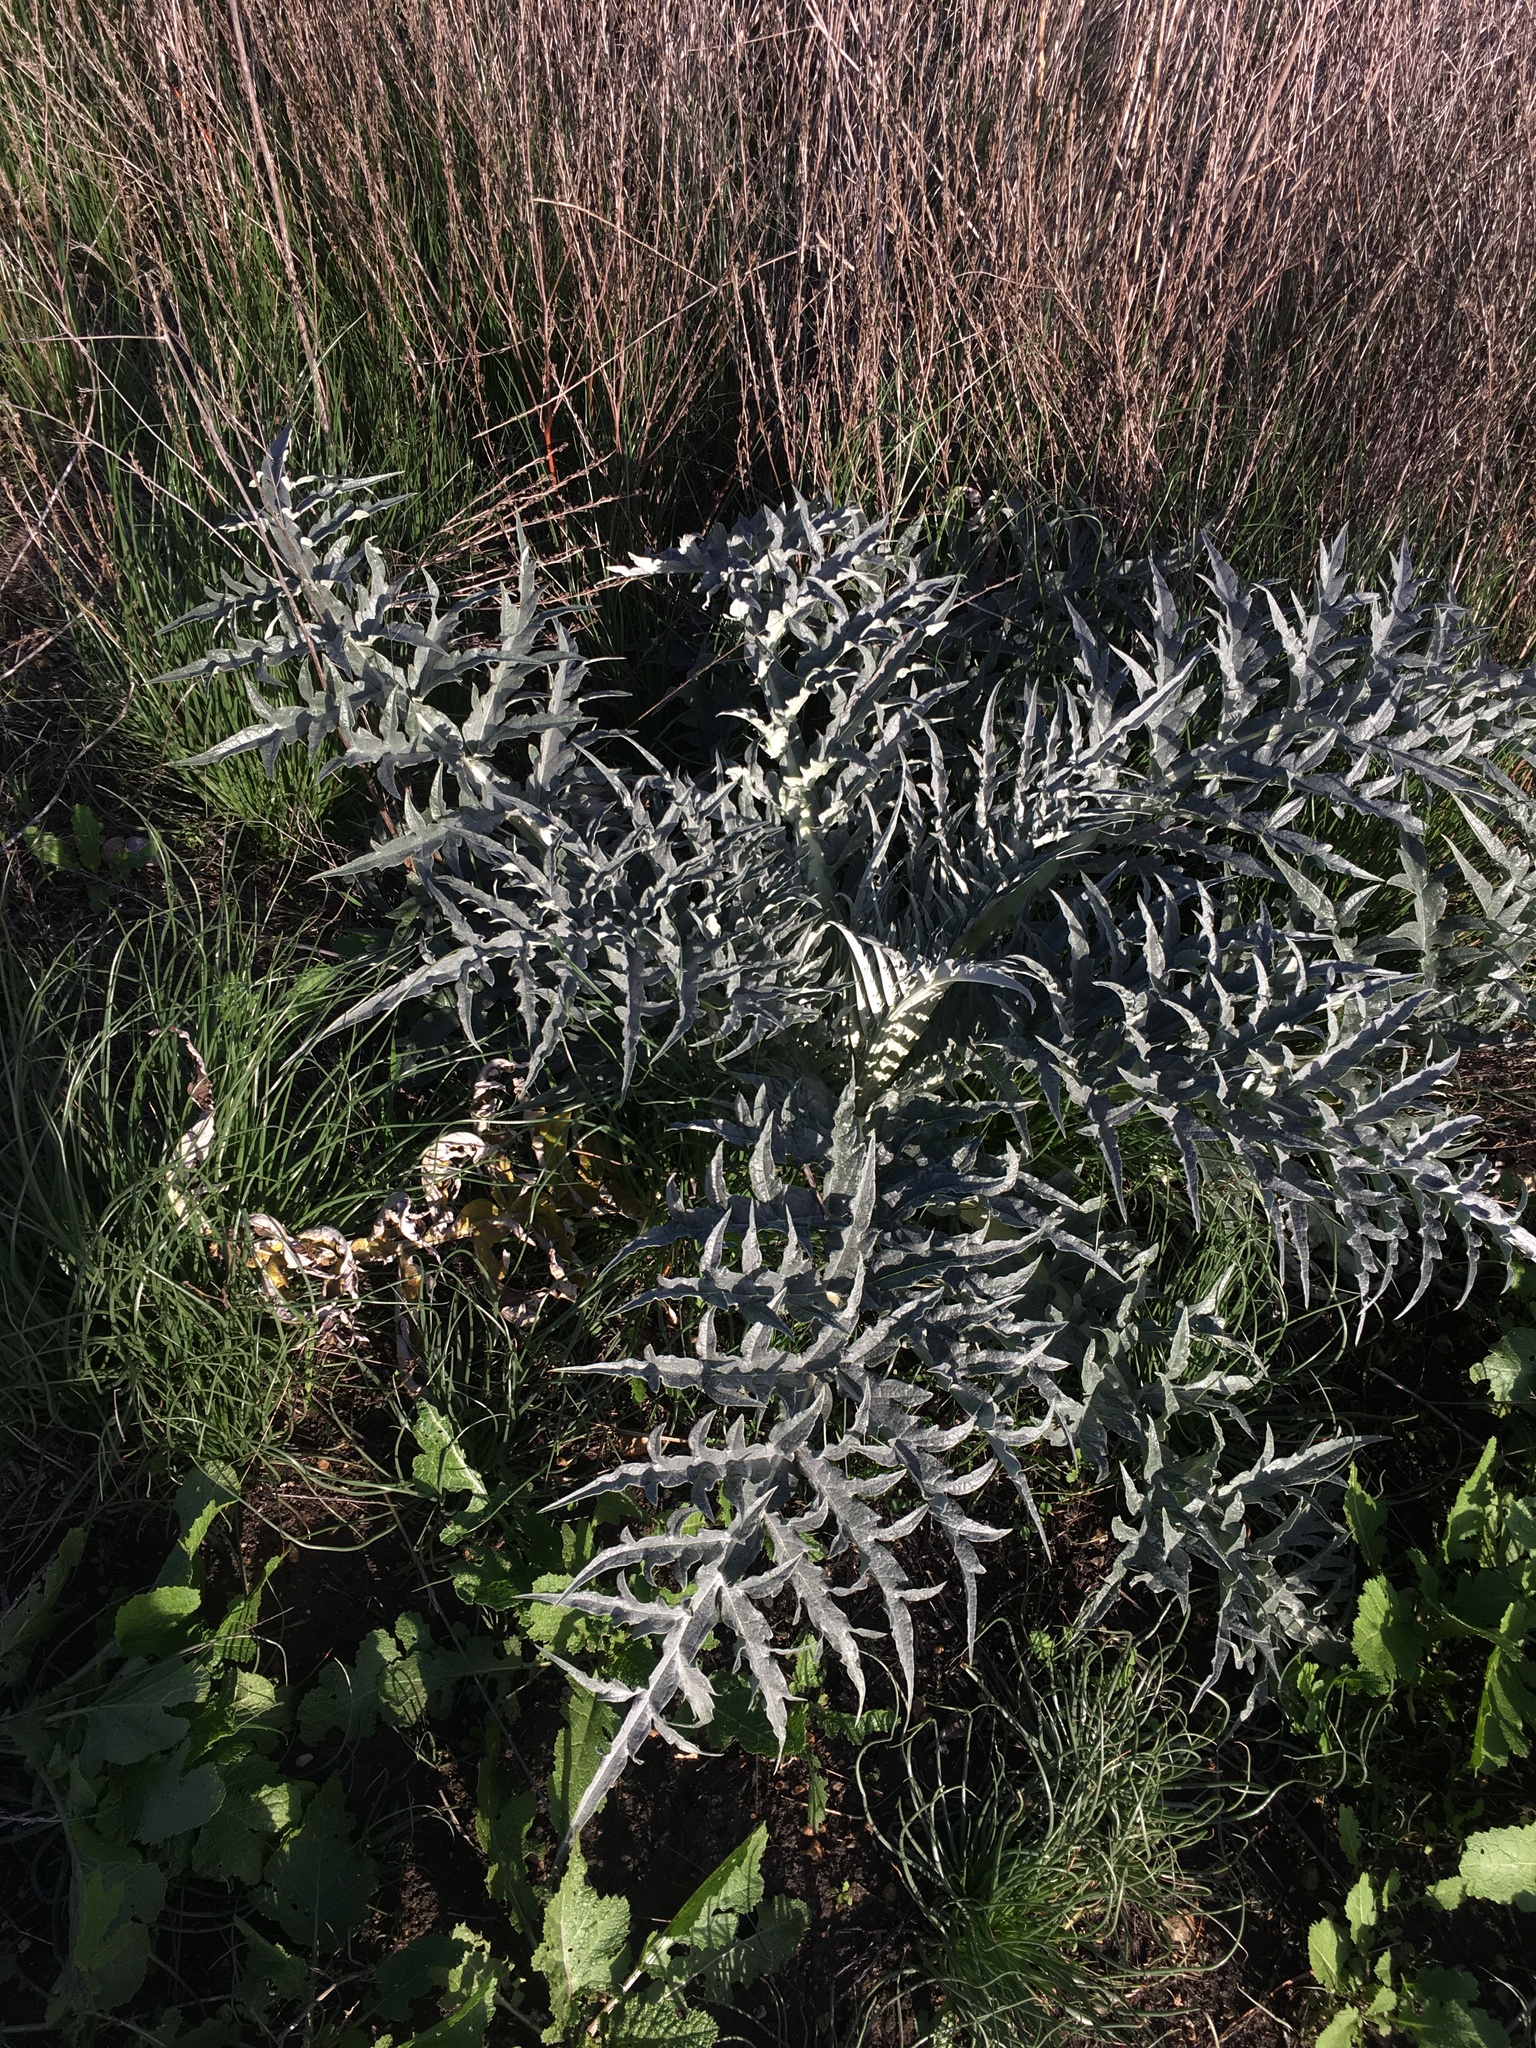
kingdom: Plantae
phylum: Tracheophyta
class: Magnoliopsida
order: Asterales
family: Asteraceae
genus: Cynara
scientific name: Cynara cardunculus
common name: Globe artichoke
